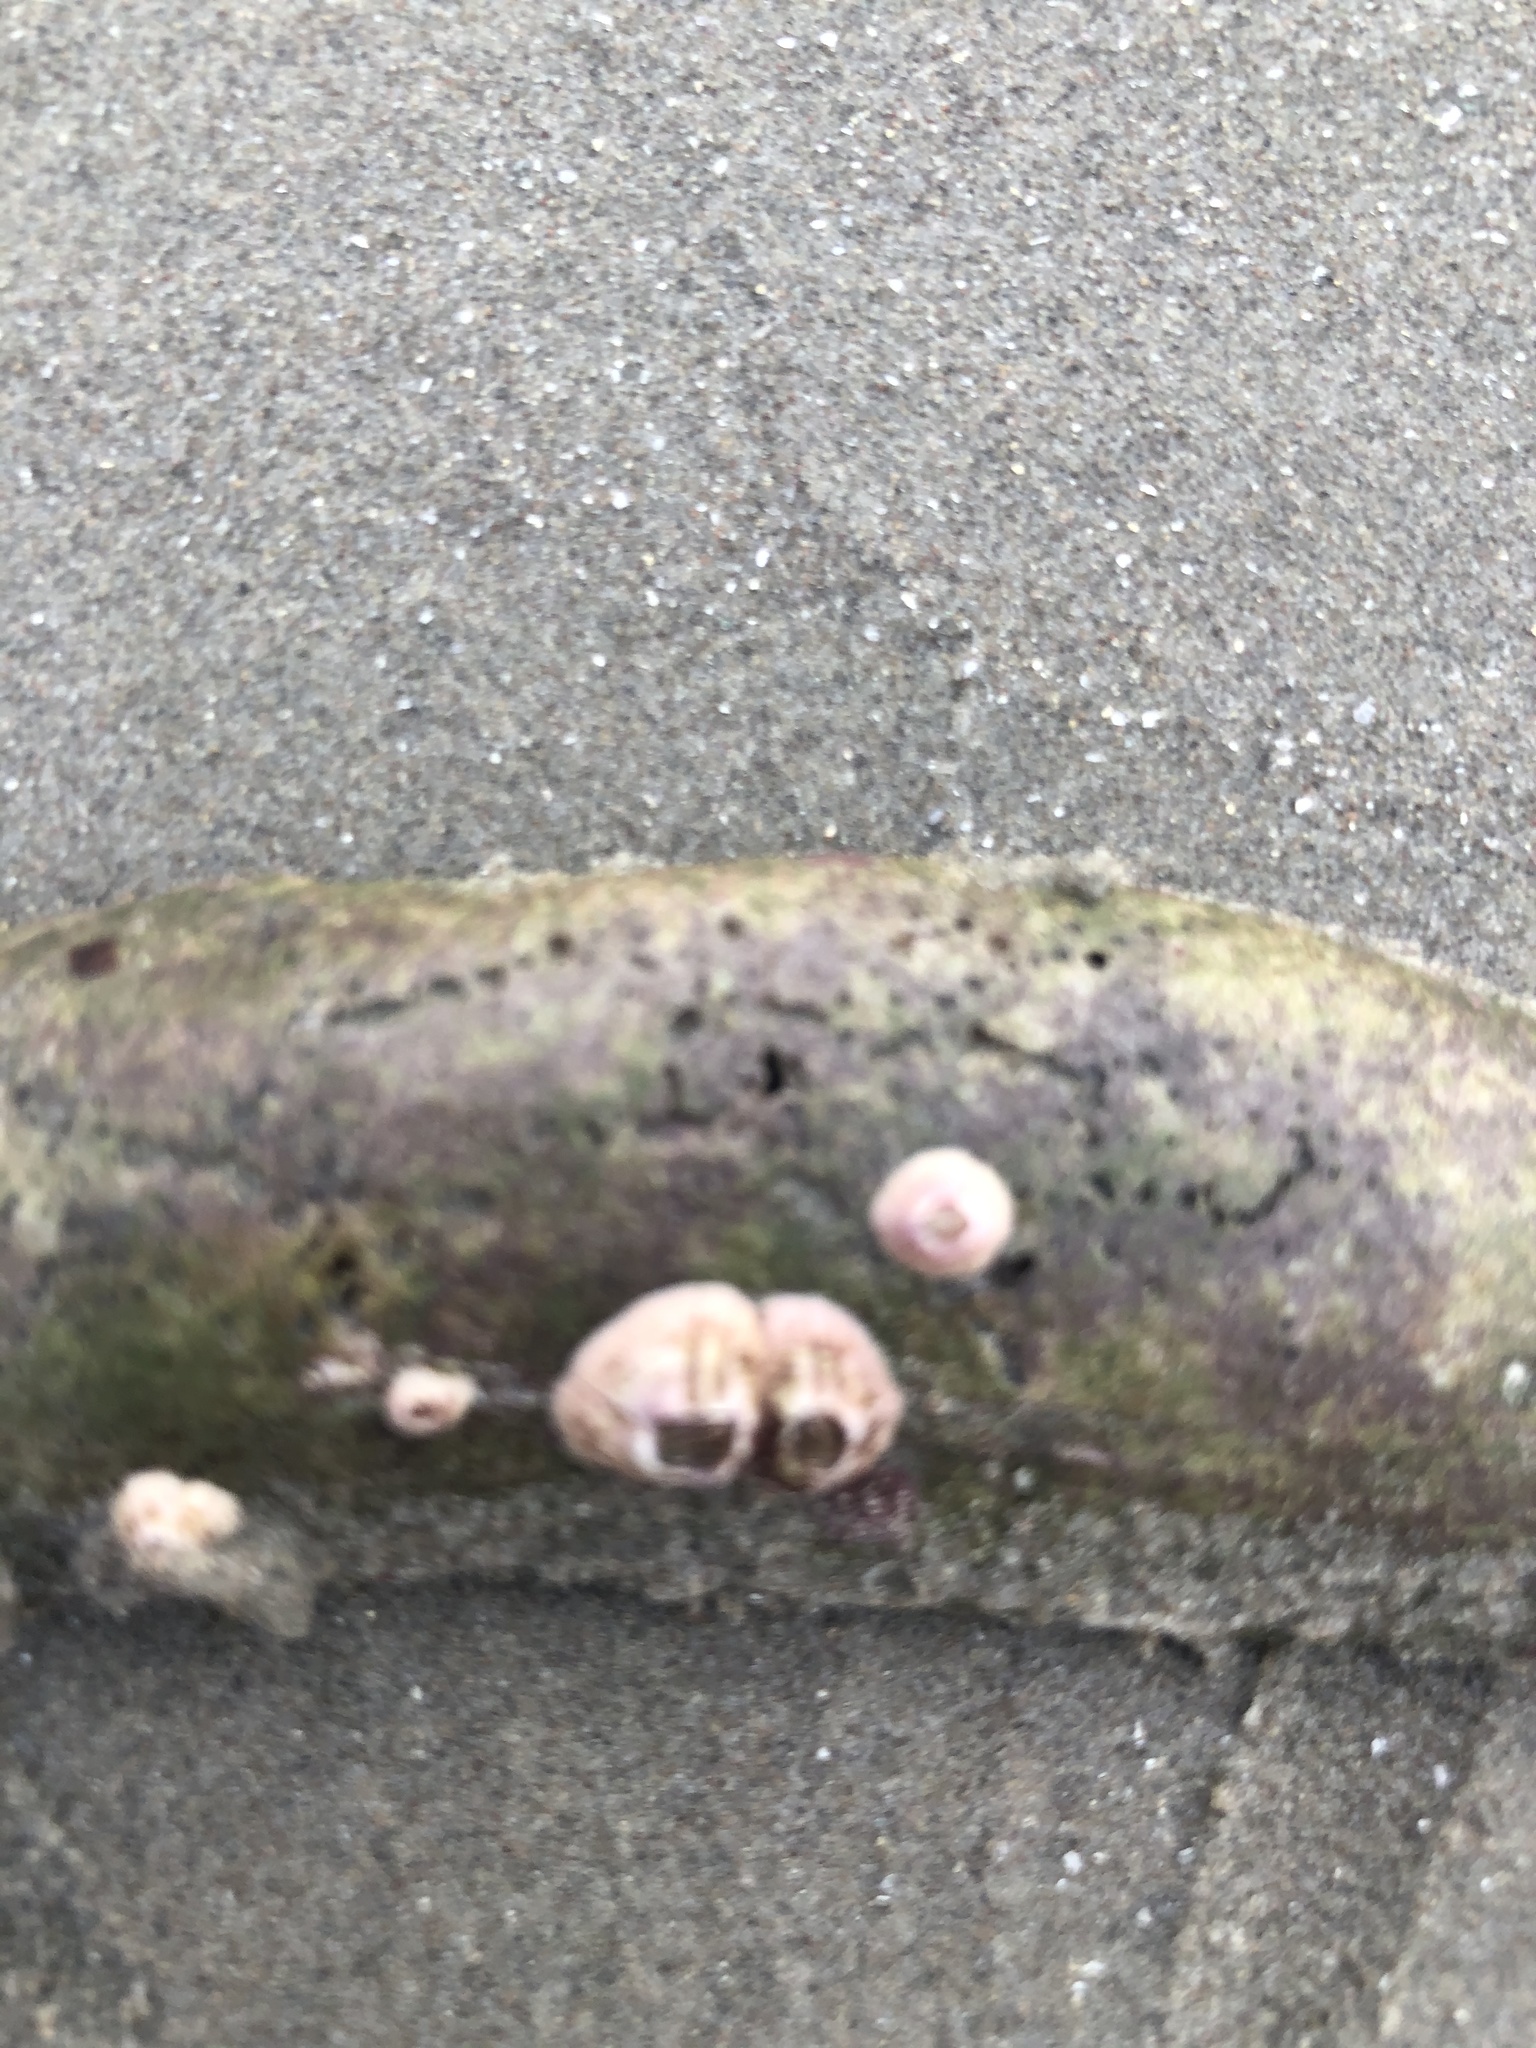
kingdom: Animalia
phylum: Arthropoda
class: Maxillopoda
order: Sessilia
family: Balanidae
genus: Balanus
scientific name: Balanus laevis
